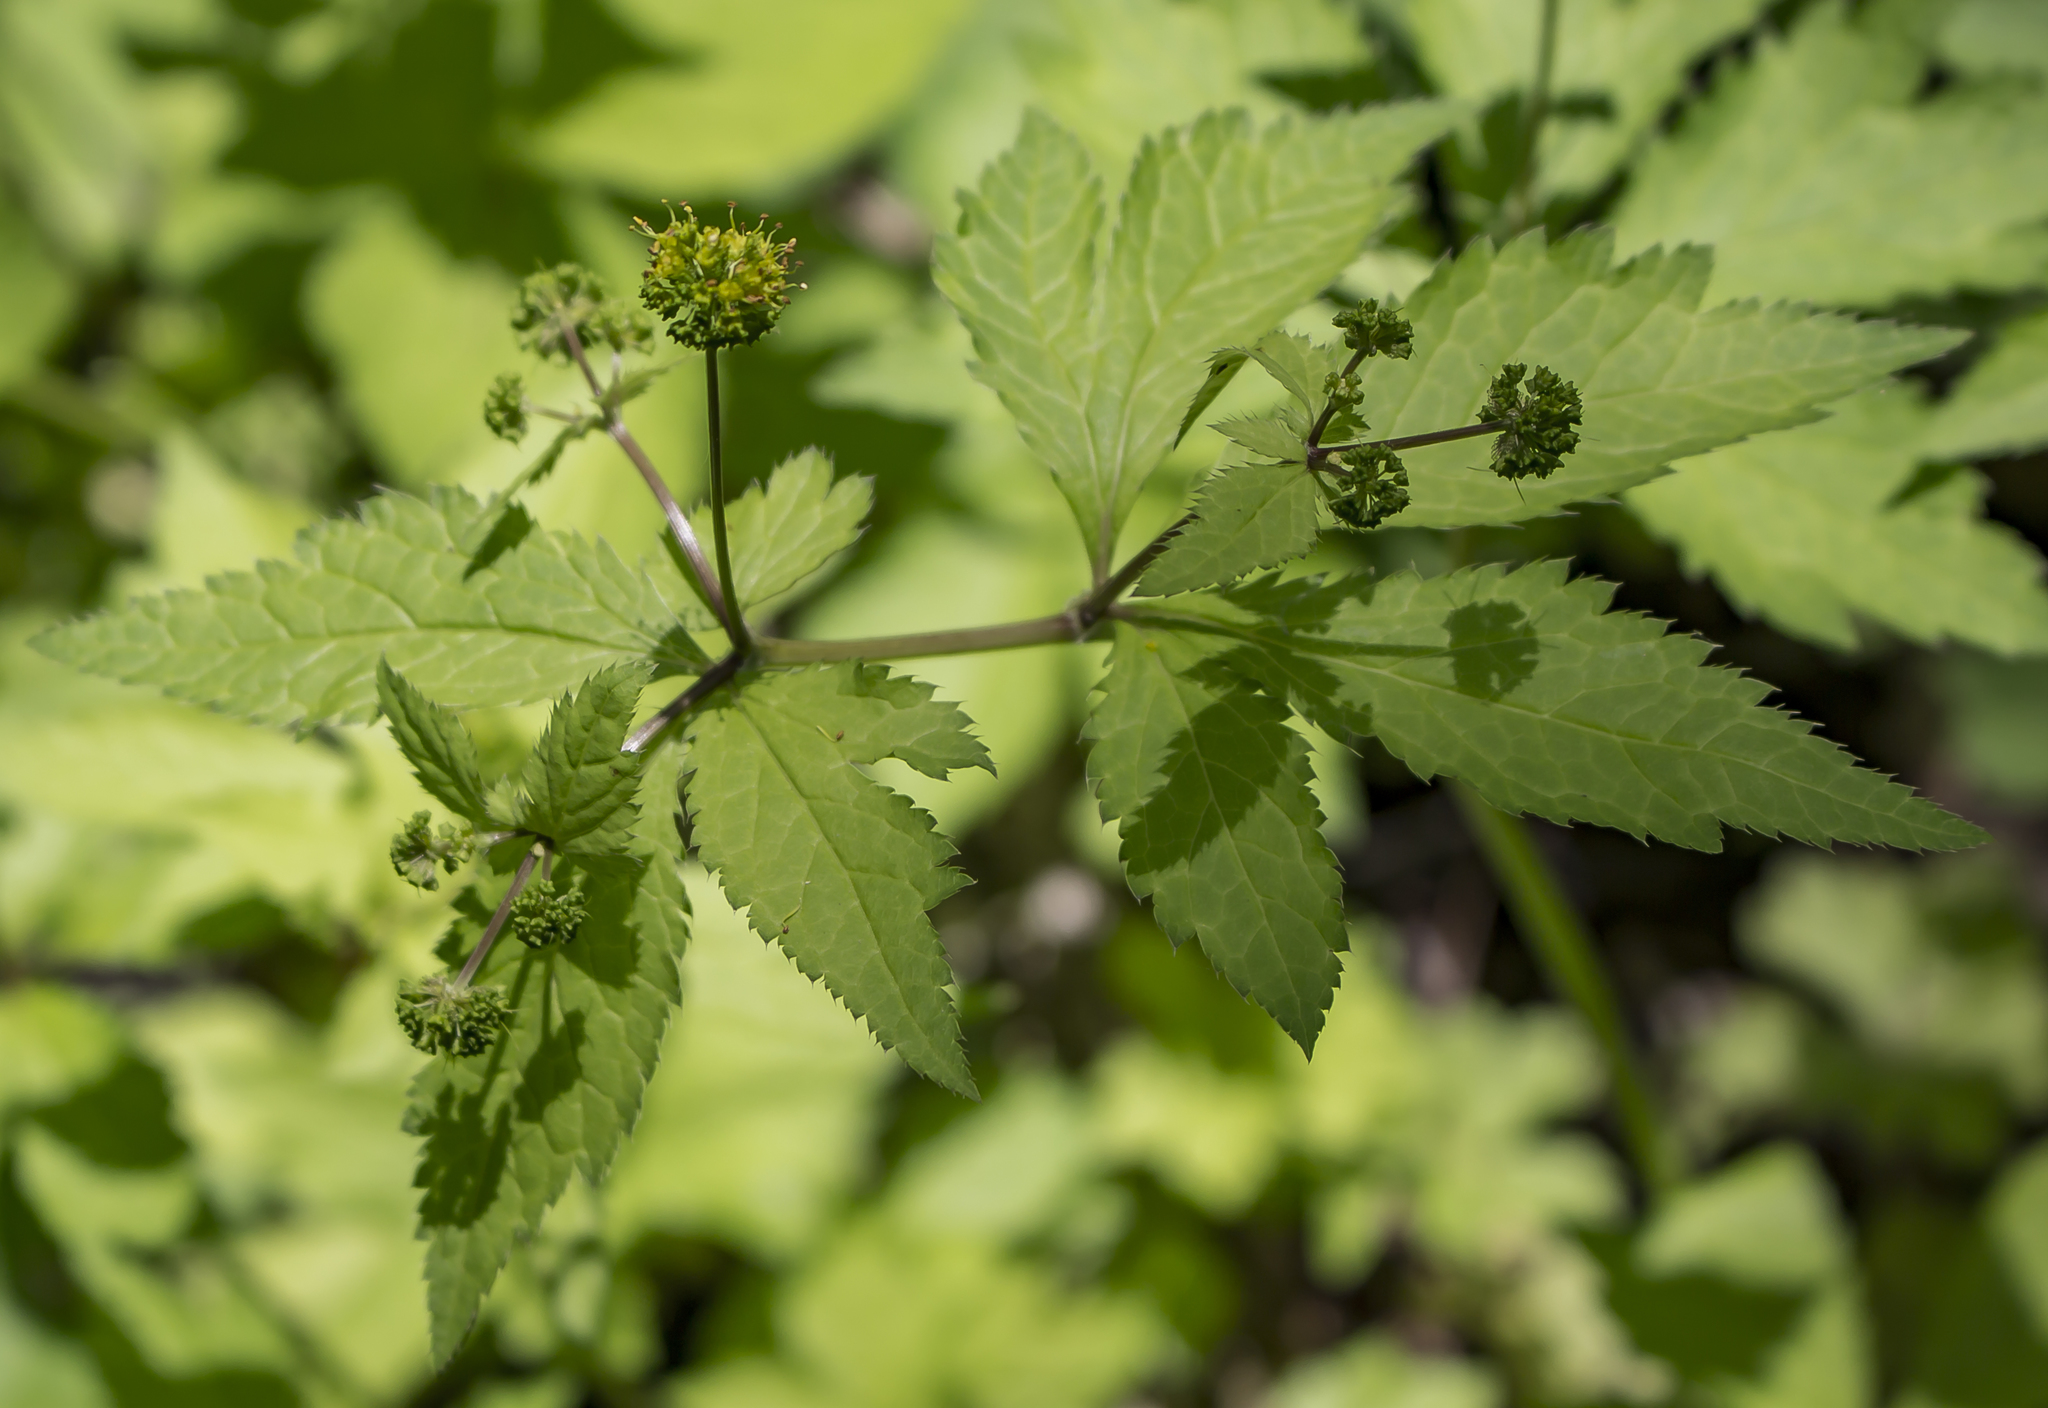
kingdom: Plantae
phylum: Tracheophyta
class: Magnoliopsida
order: Apiales
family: Apiaceae
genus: Sanicula
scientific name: Sanicula odorata
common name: Cluster sanicle
